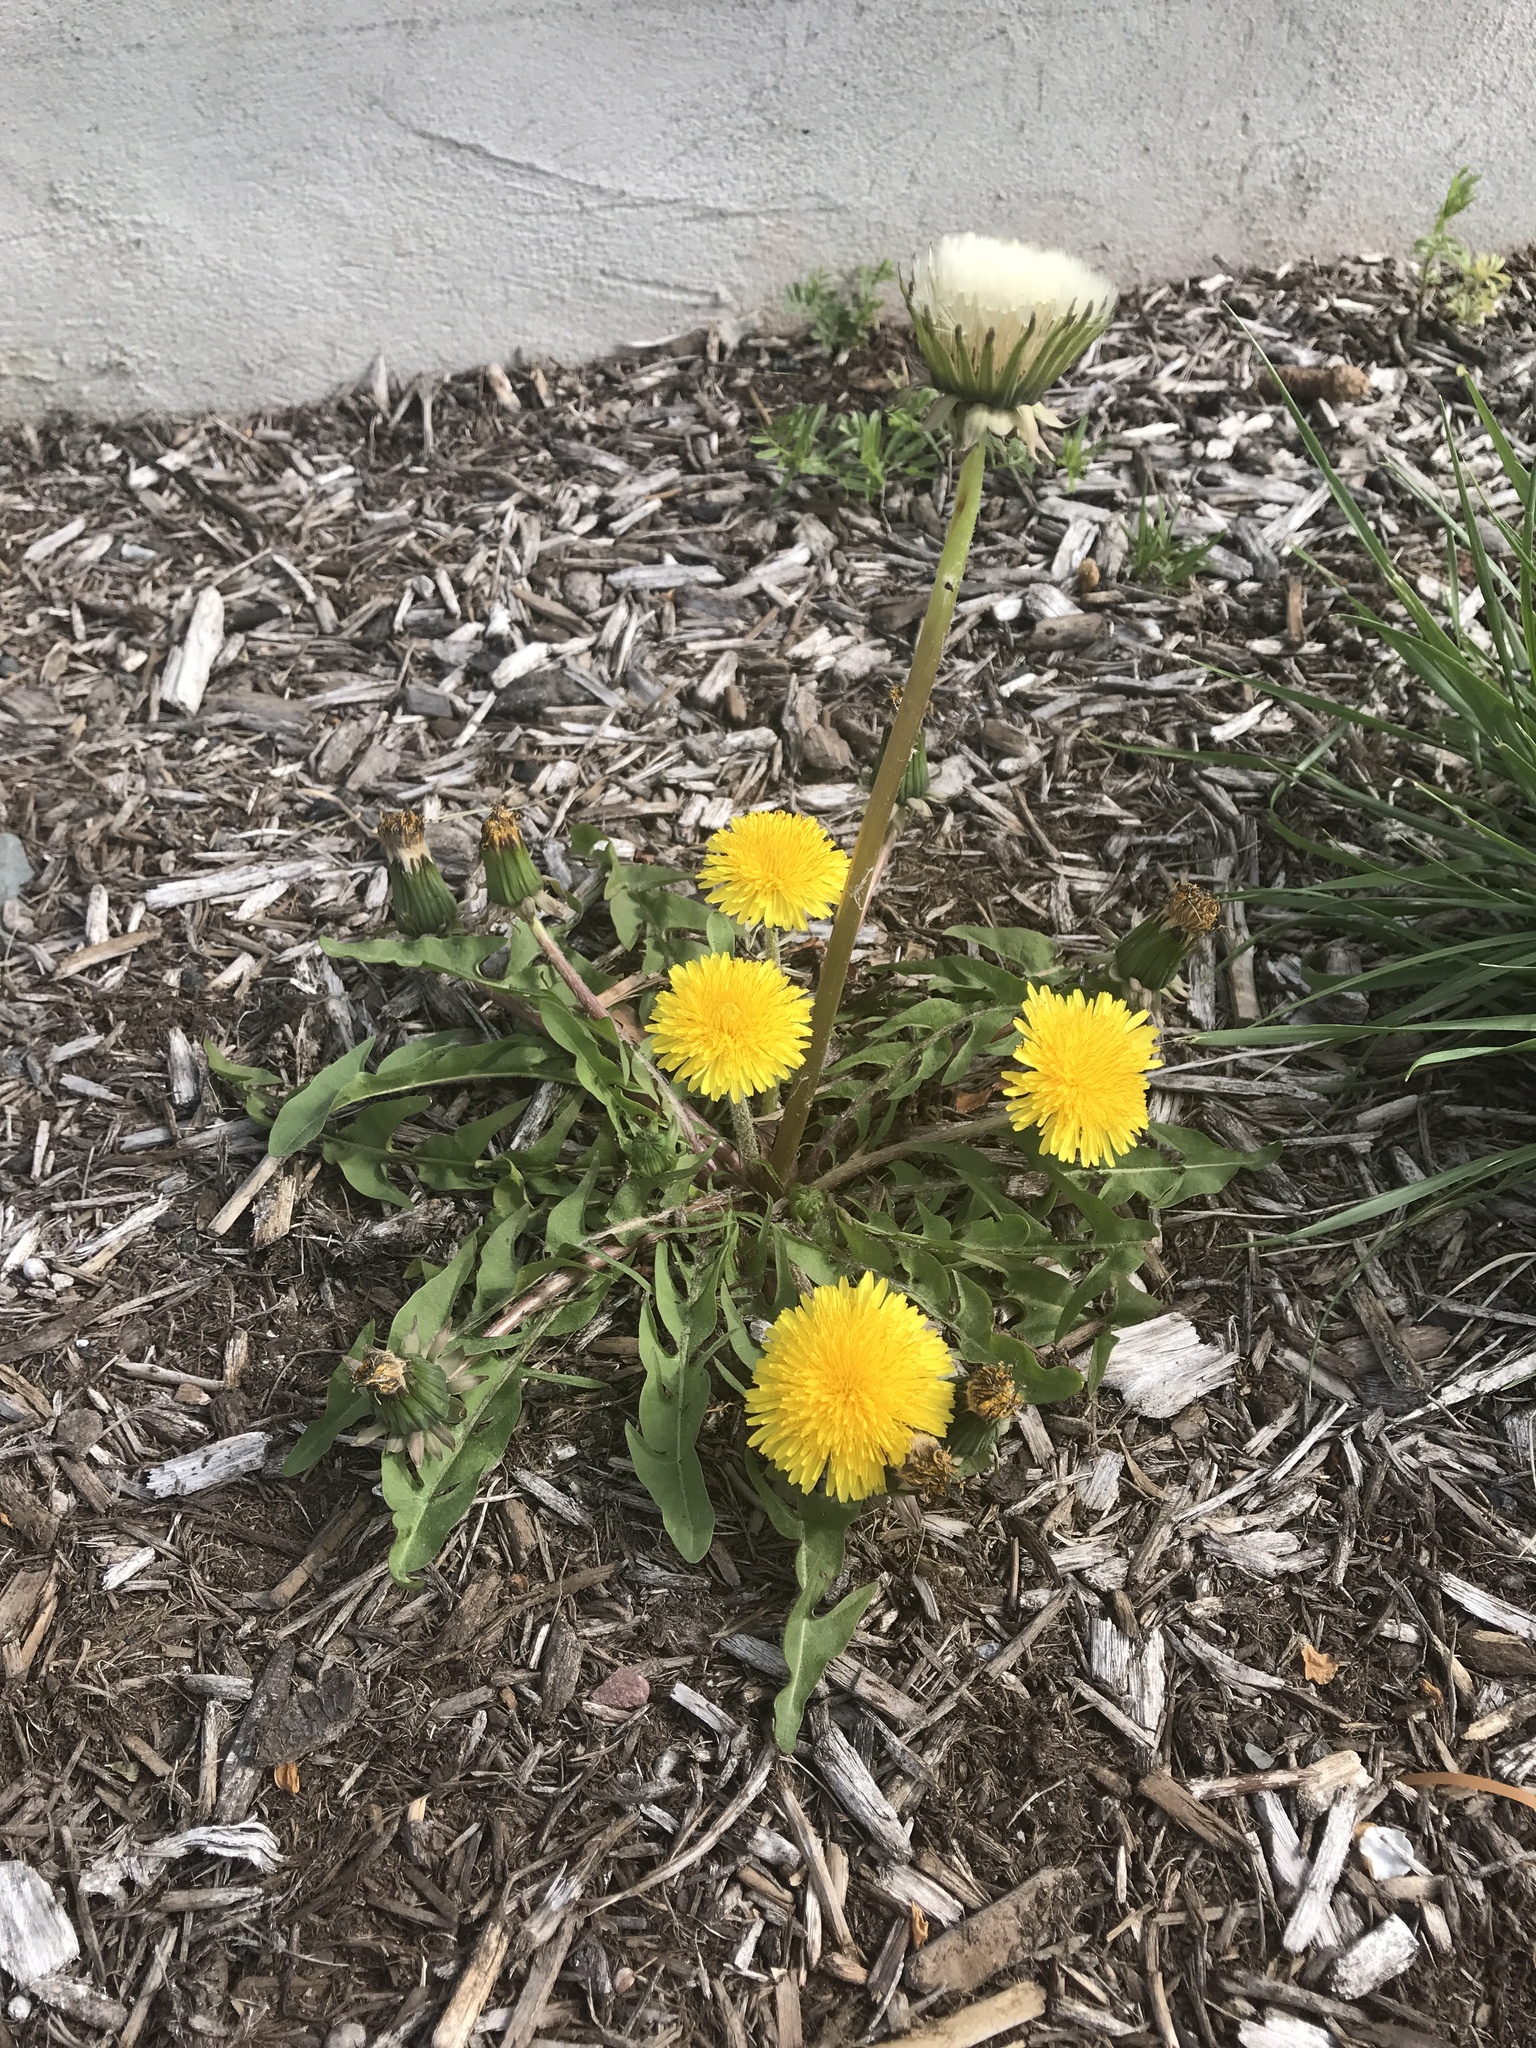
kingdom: Plantae
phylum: Tracheophyta
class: Magnoliopsida
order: Asterales
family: Asteraceae
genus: Taraxacum
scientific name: Taraxacum
